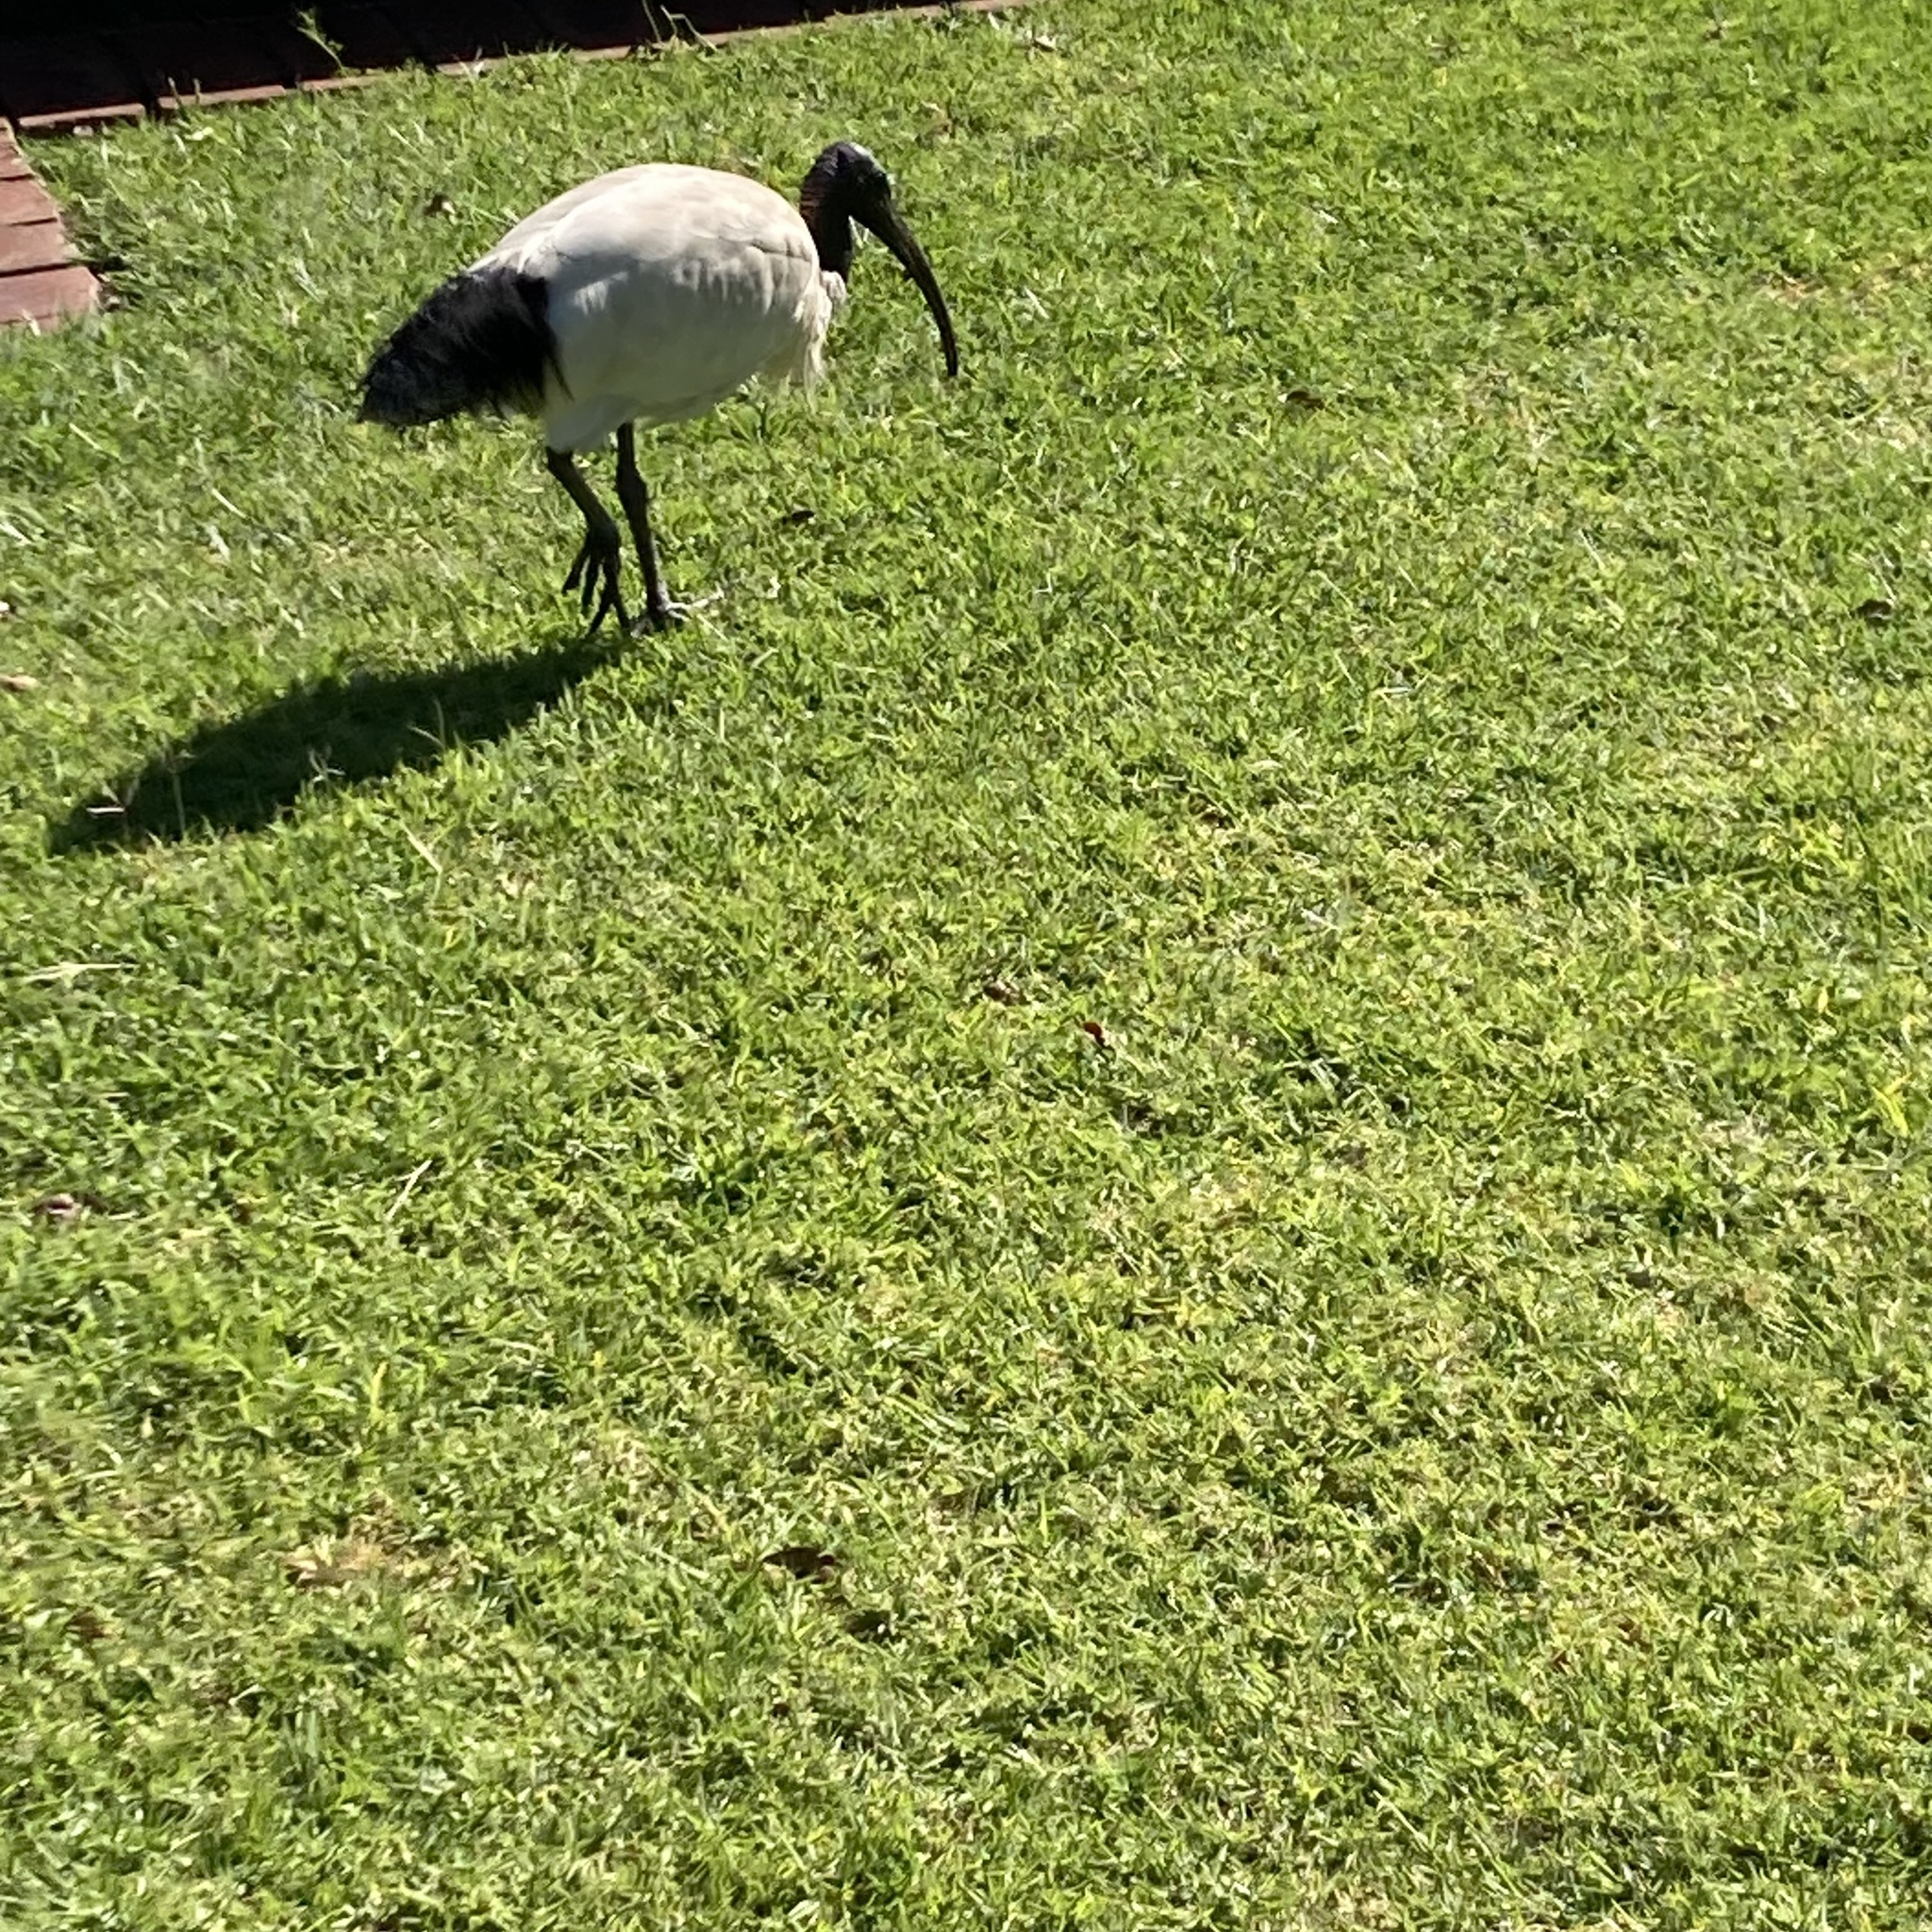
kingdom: Animalia
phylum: Chordata
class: Aves
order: Pelecaniformes
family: Threskiornithidae
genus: Threskiornis
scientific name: Threskiornis molucca
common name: Australian white ibis
